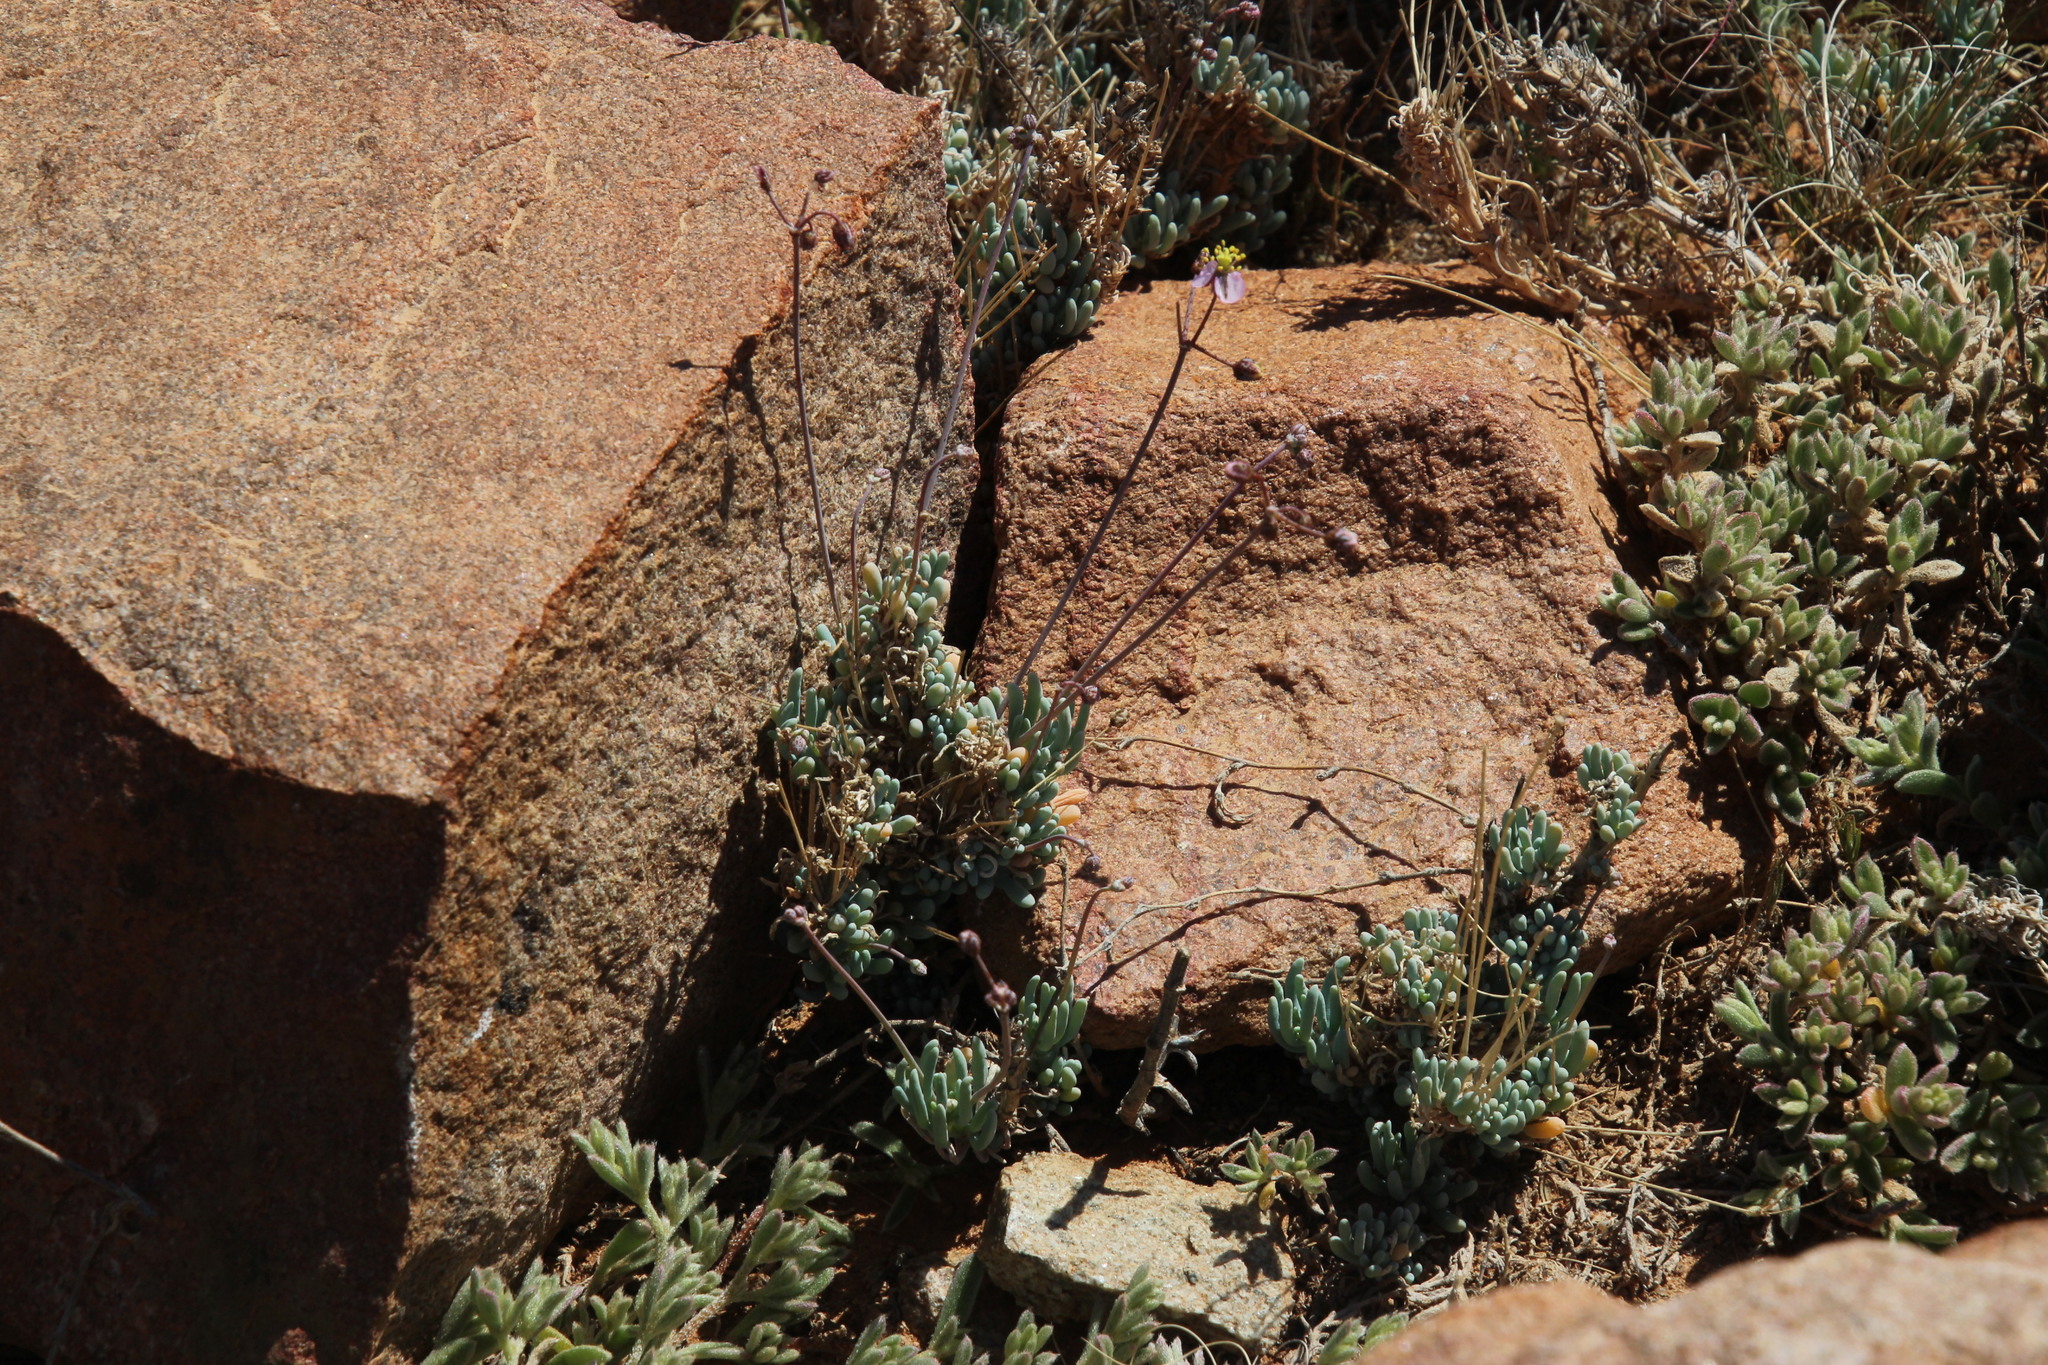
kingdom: Plantae
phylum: Tracheophyta
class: Magnoliopsida
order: Caryophyllales
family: Kewaceae
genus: Kewa
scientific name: Kewa salsoloides
